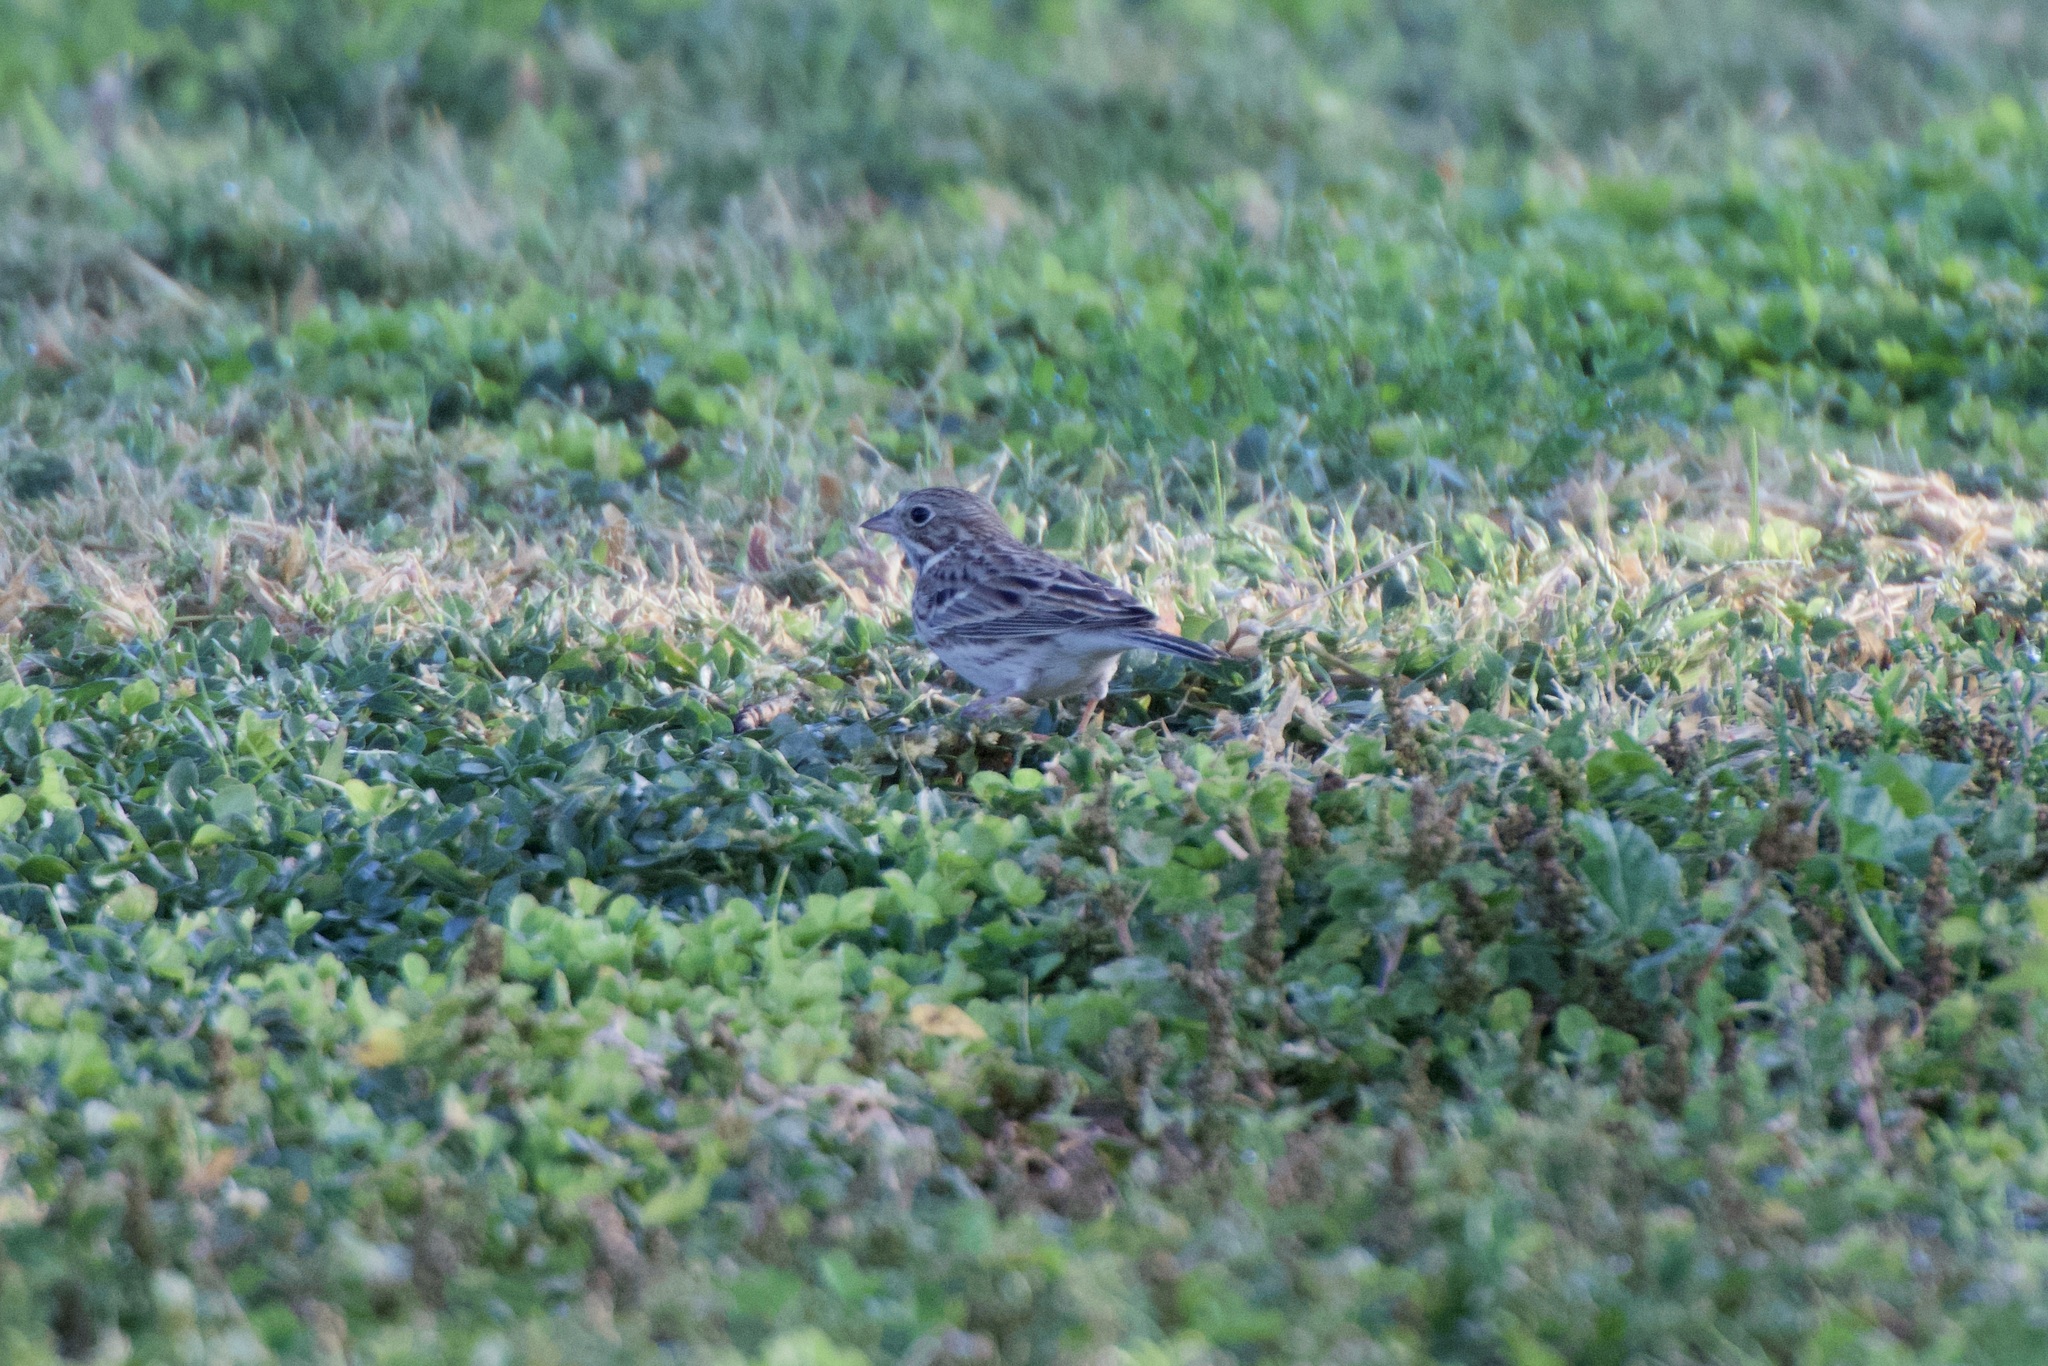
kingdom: Animalia
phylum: Chordata
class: Aves
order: Passeriformes
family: Passerellidae
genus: Pooecetes
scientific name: Pooecetes gramineus
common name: Vesper sparrow
